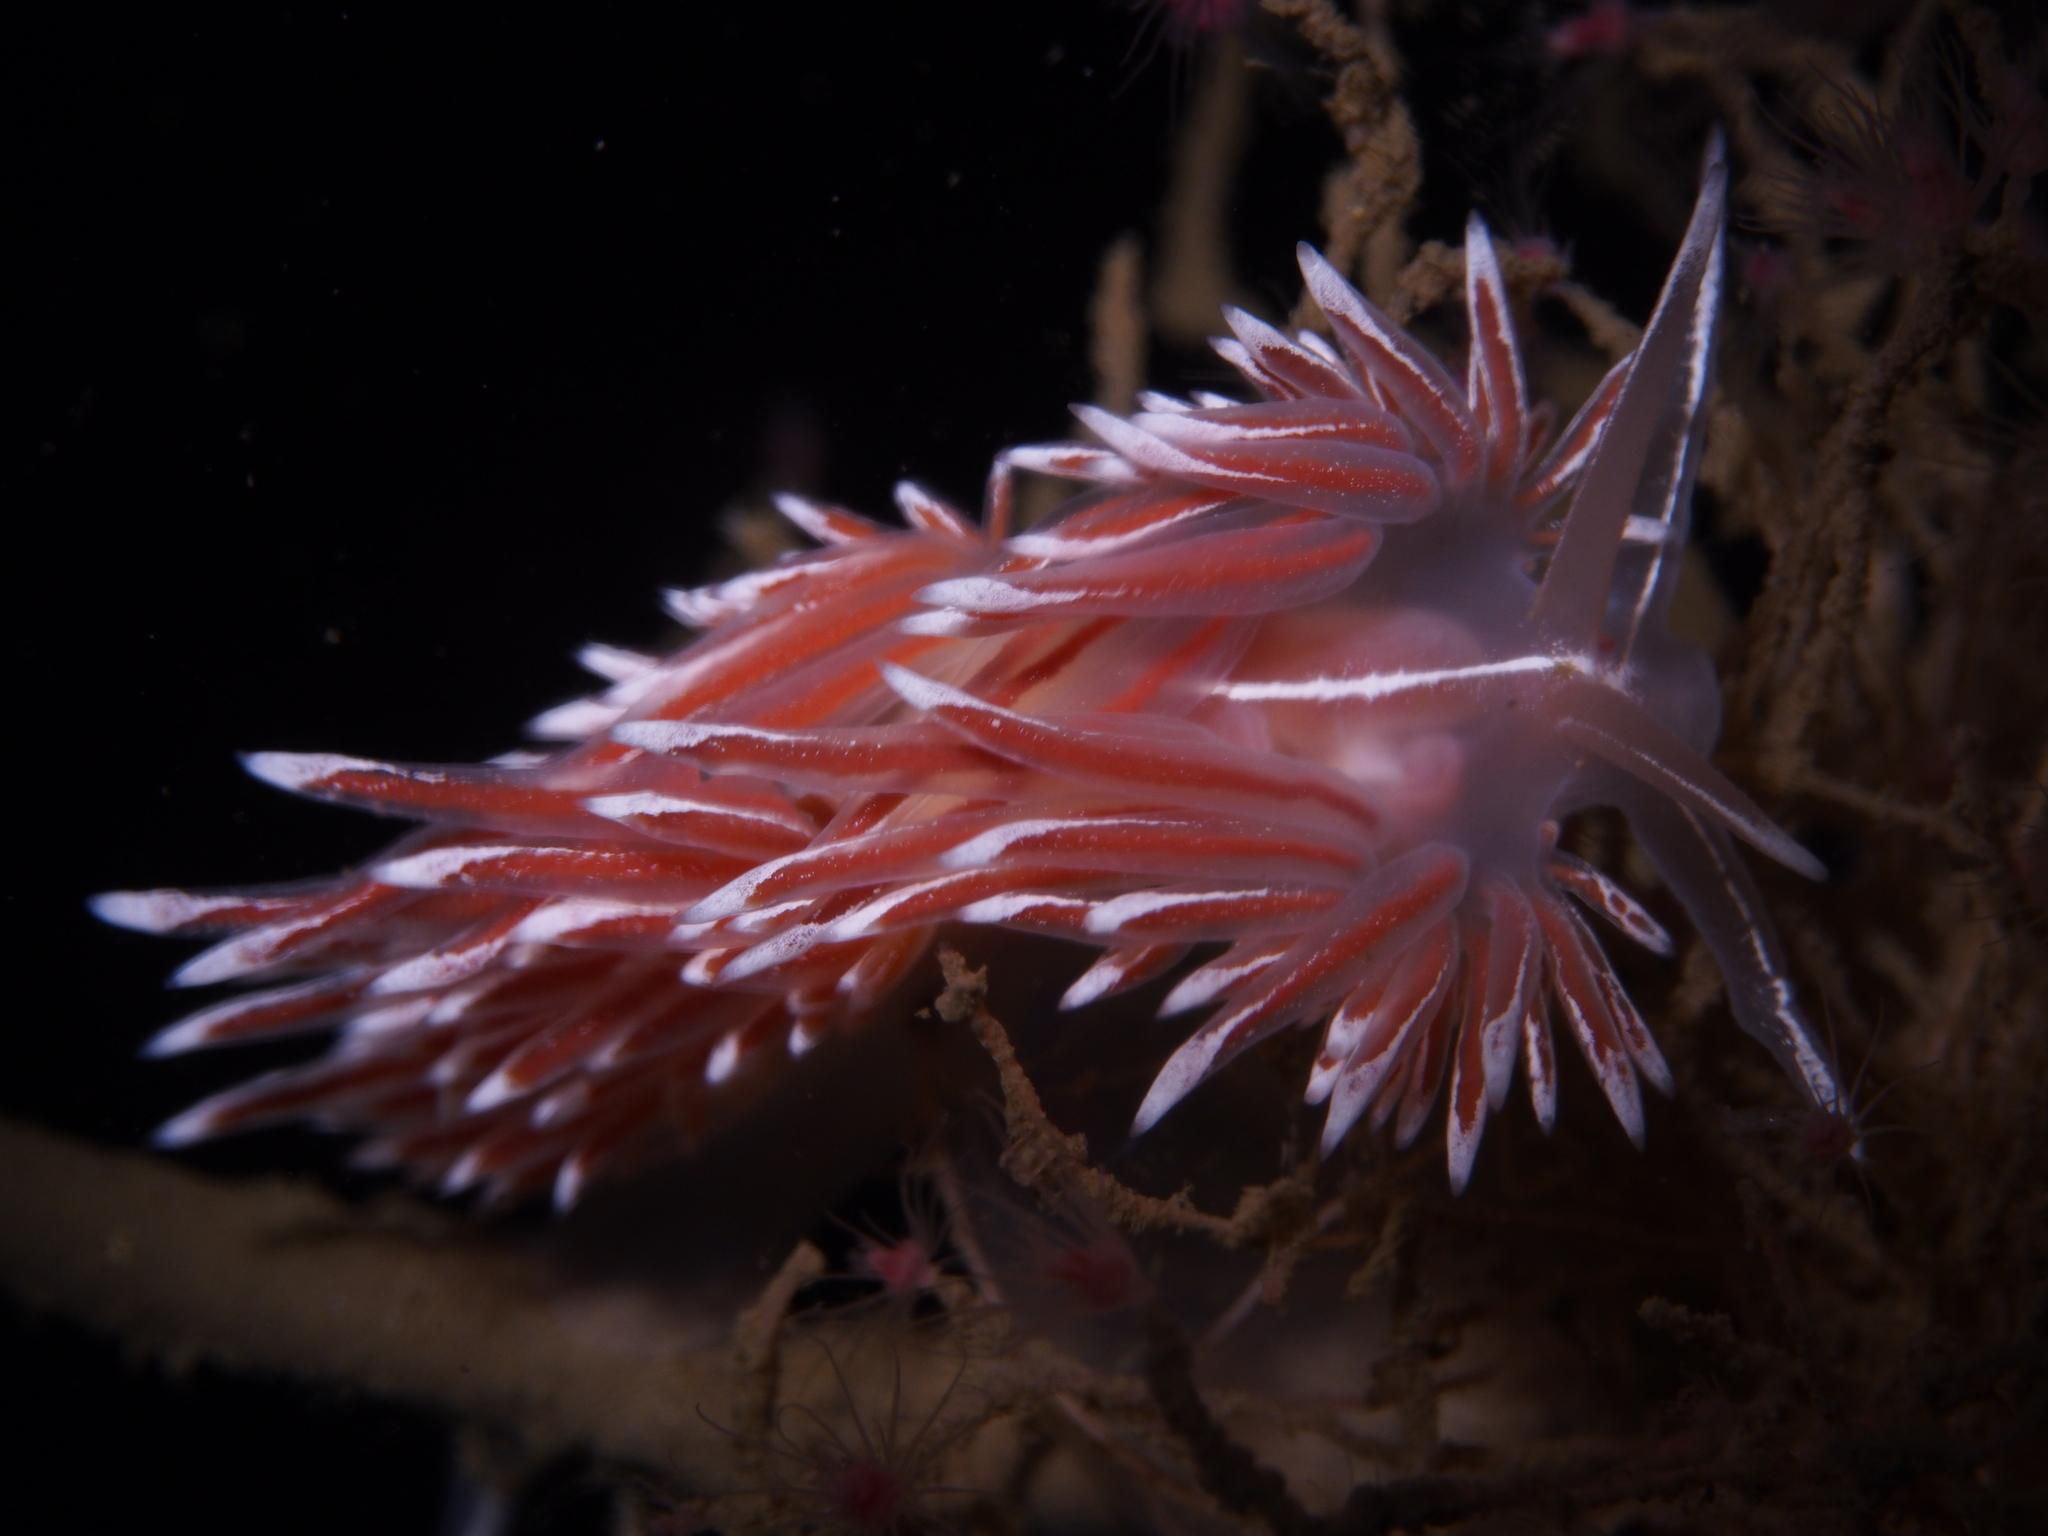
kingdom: Animalia
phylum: Mollusca
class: Gastropoda
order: Nudibranchia
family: Coryphellidae
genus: Coryphella
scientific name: Coryphella lineata
